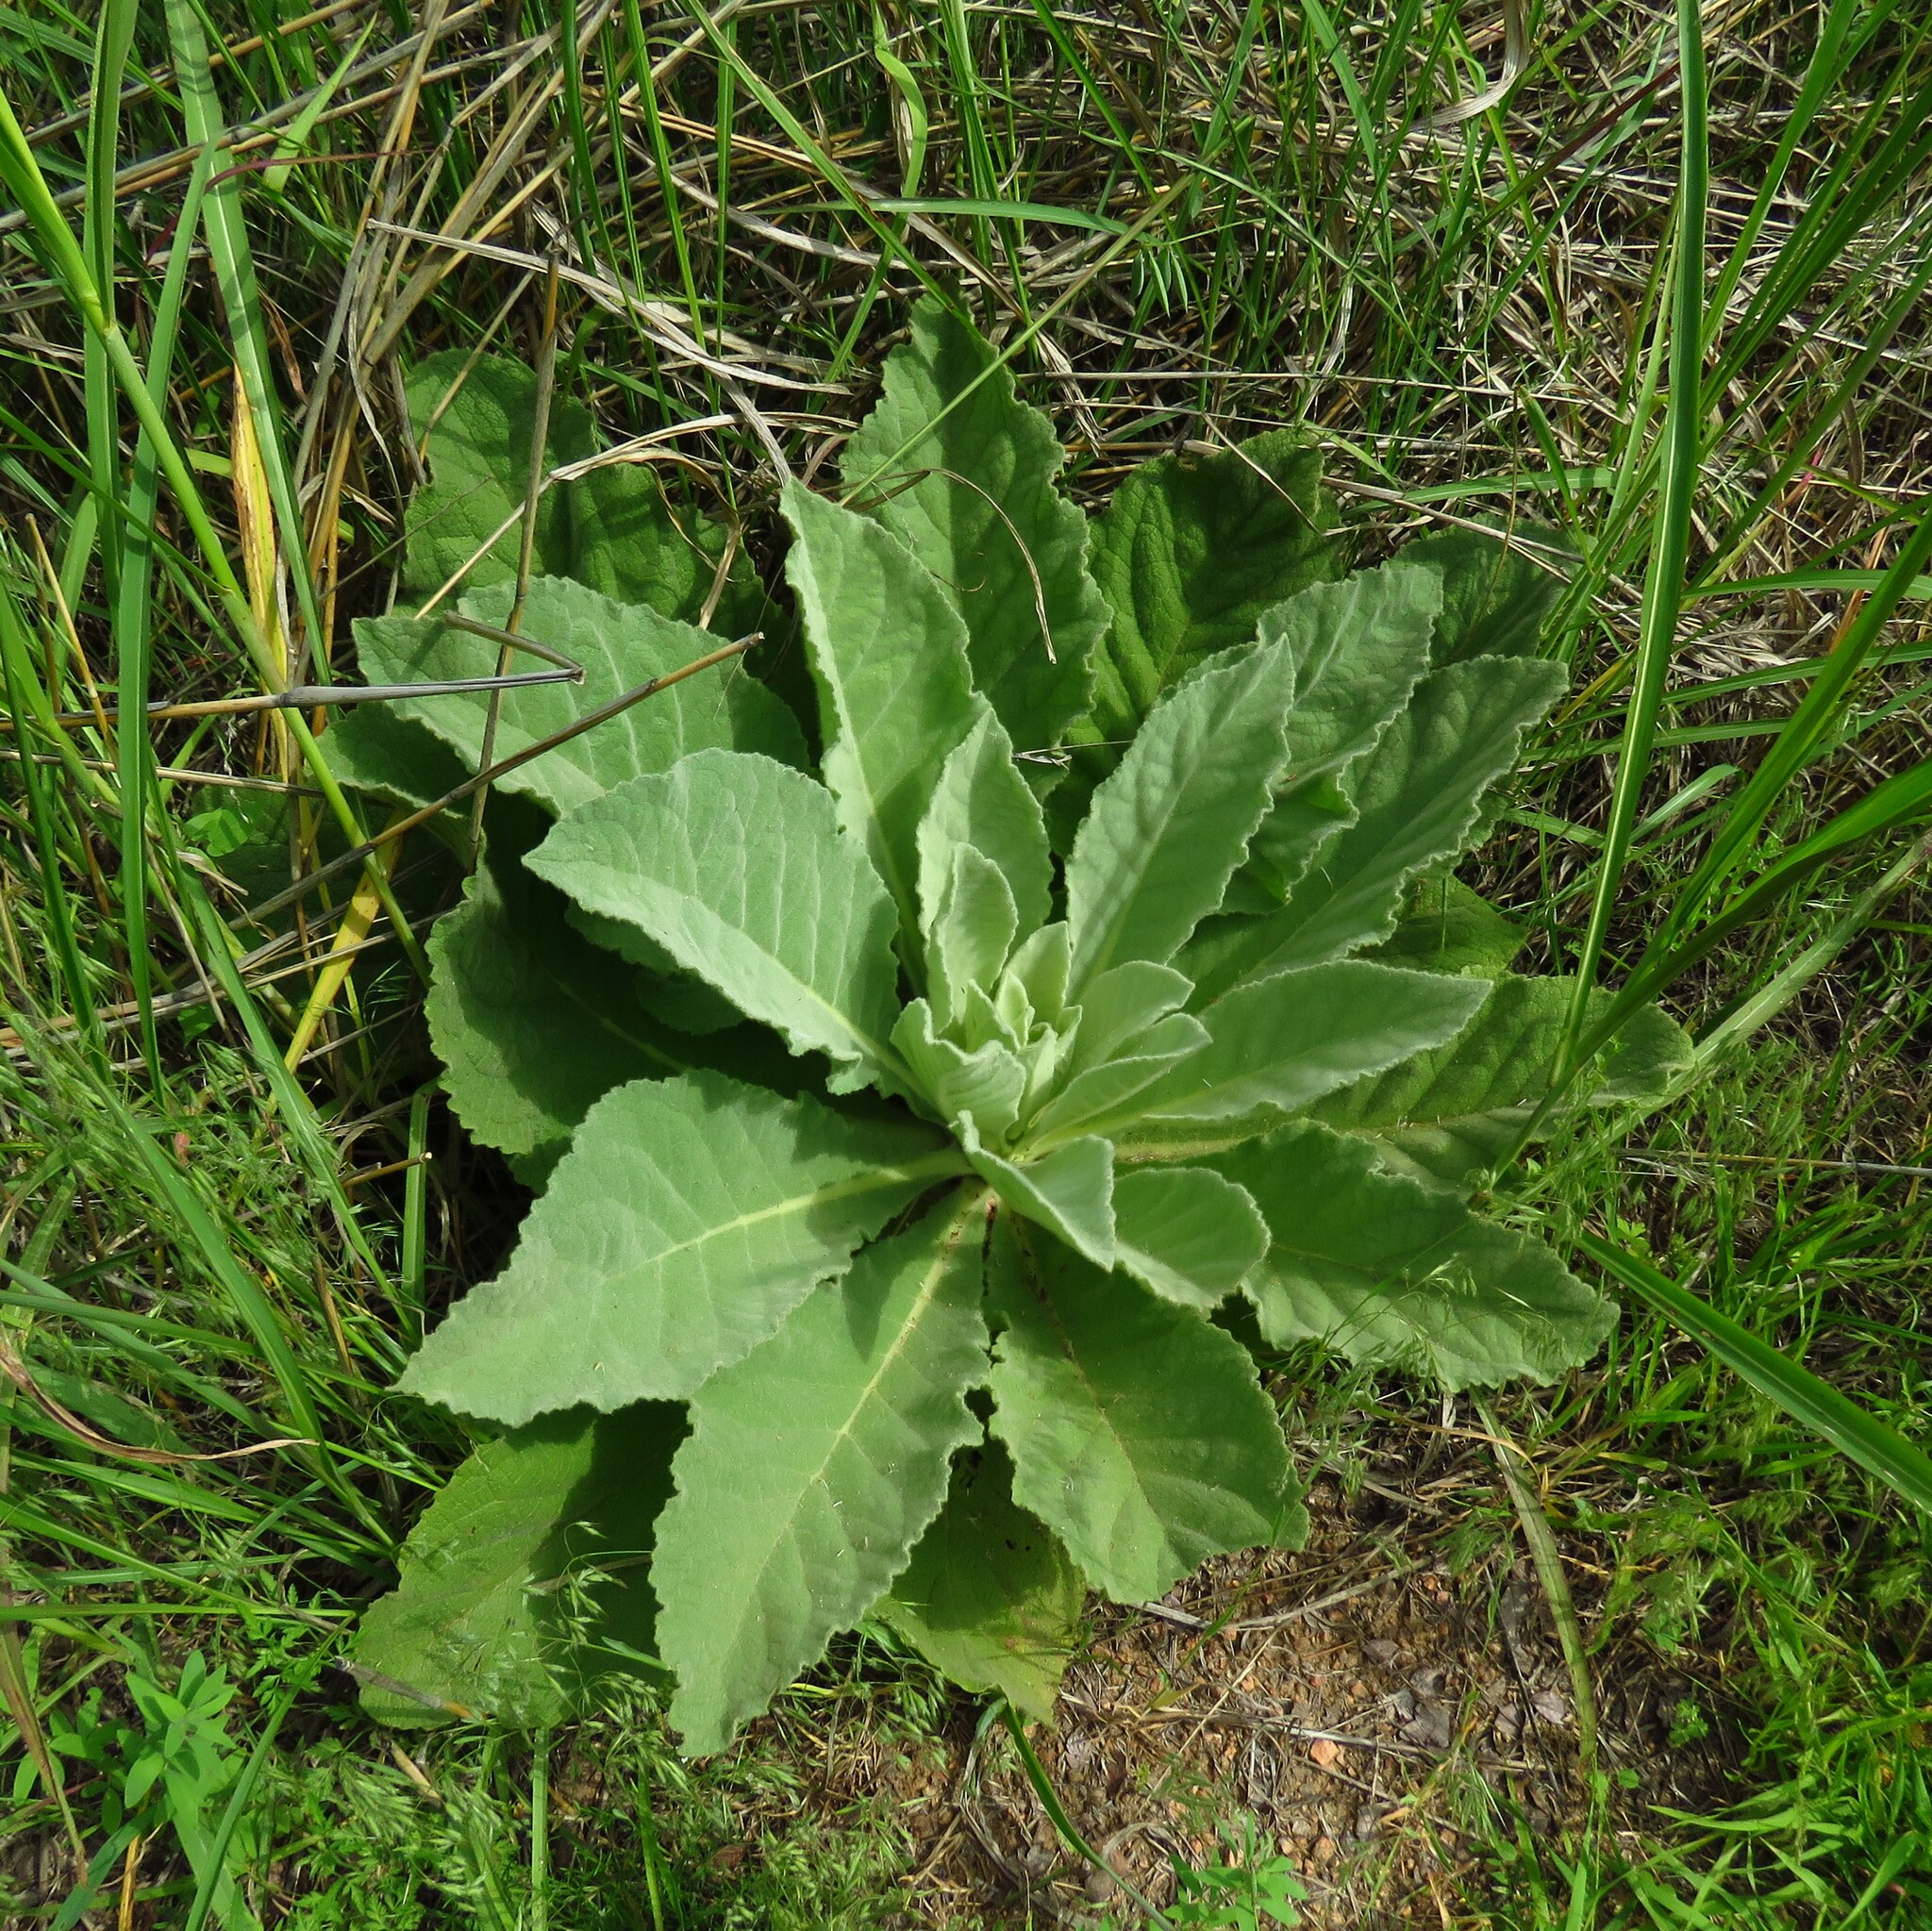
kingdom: Plantae
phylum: Tracheophyta
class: Magnoliopsida
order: Lamiales
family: Scrophulariaceae
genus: Verbascum
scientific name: Verbascum thapsus
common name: Common mullein
